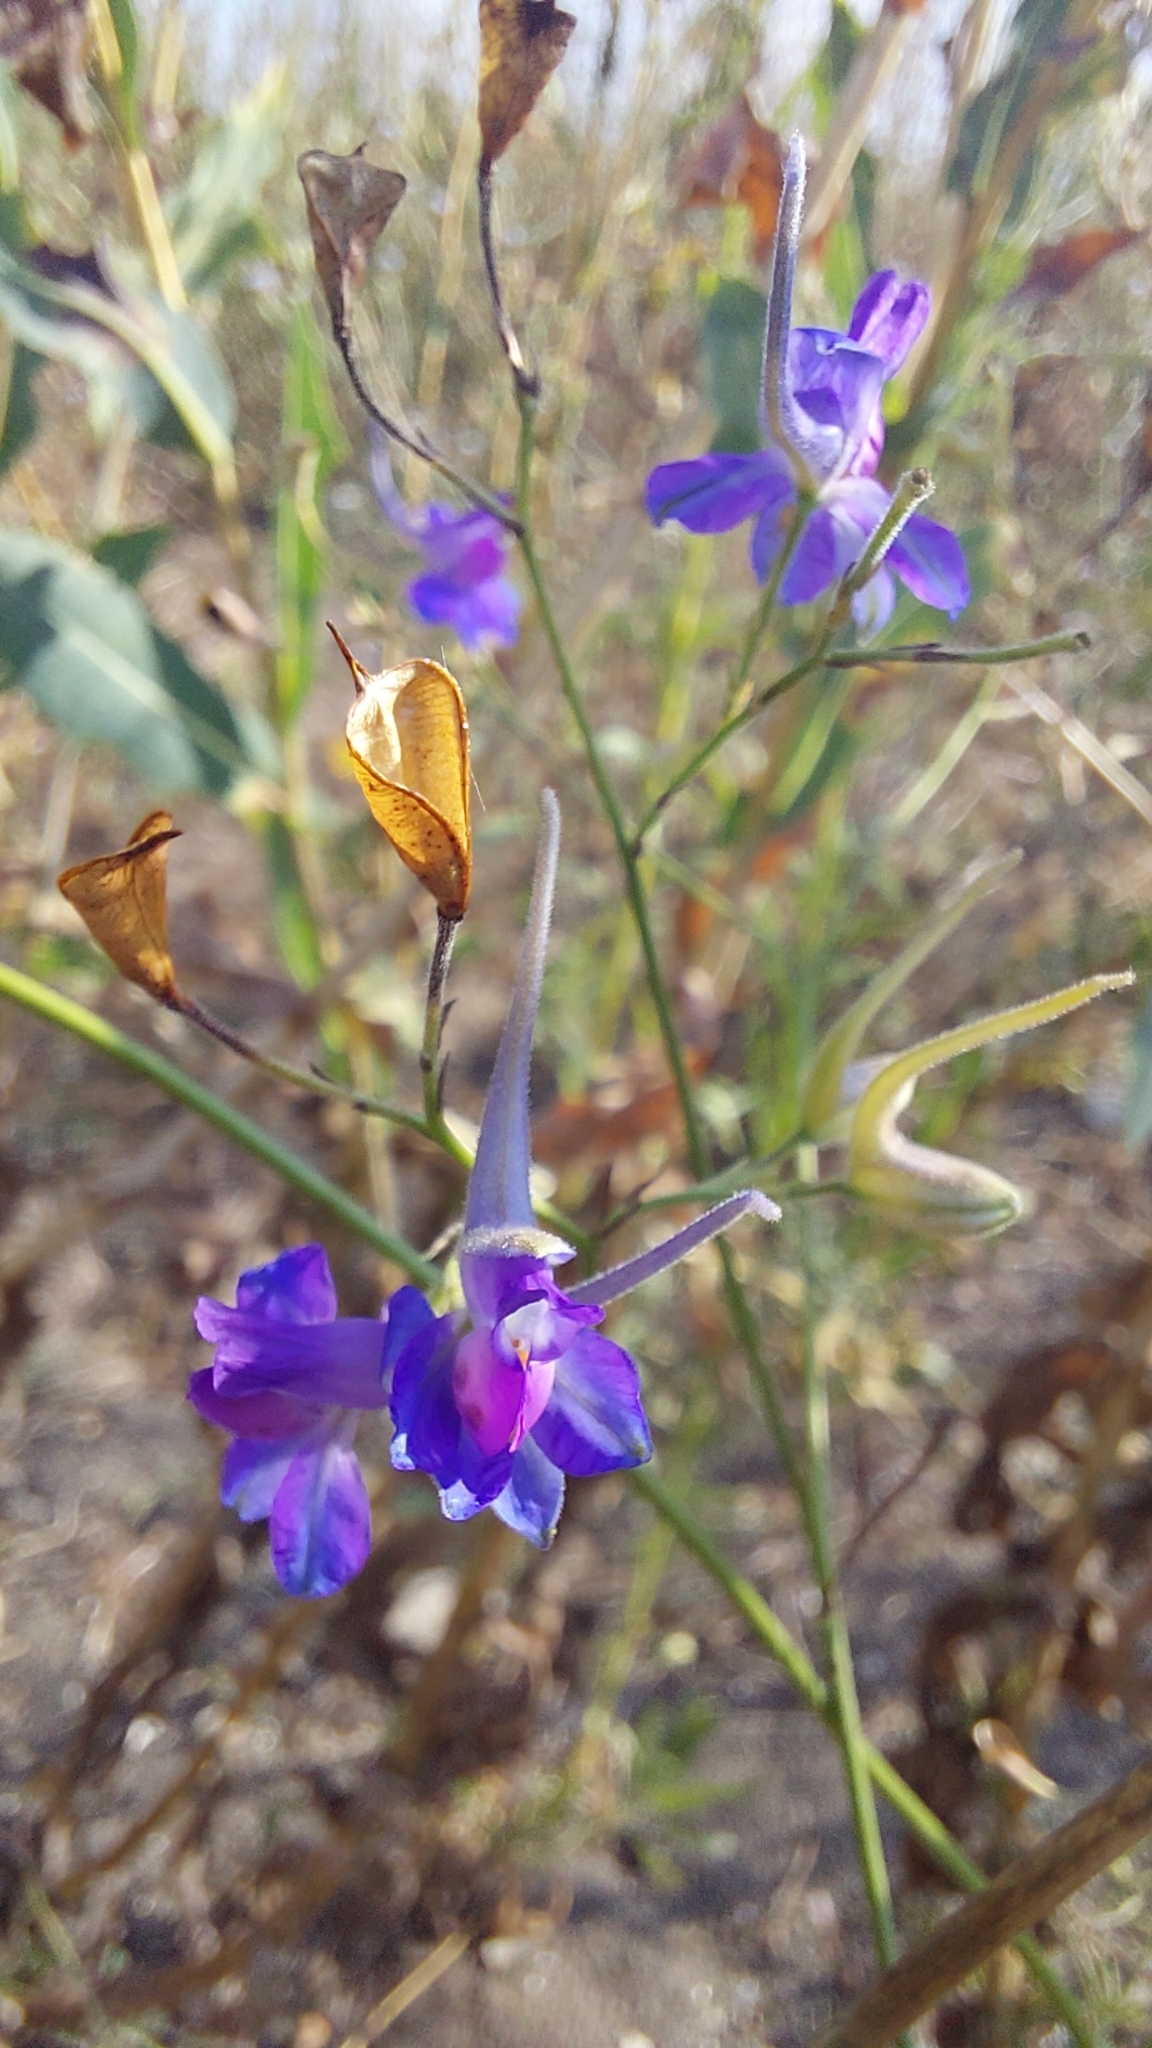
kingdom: Plantae
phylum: Tracheophyta
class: Magnoliopsida
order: Ranunculales
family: Ranunculaceae
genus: Delphinium
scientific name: Delphinium consolida
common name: Branching larkspur
